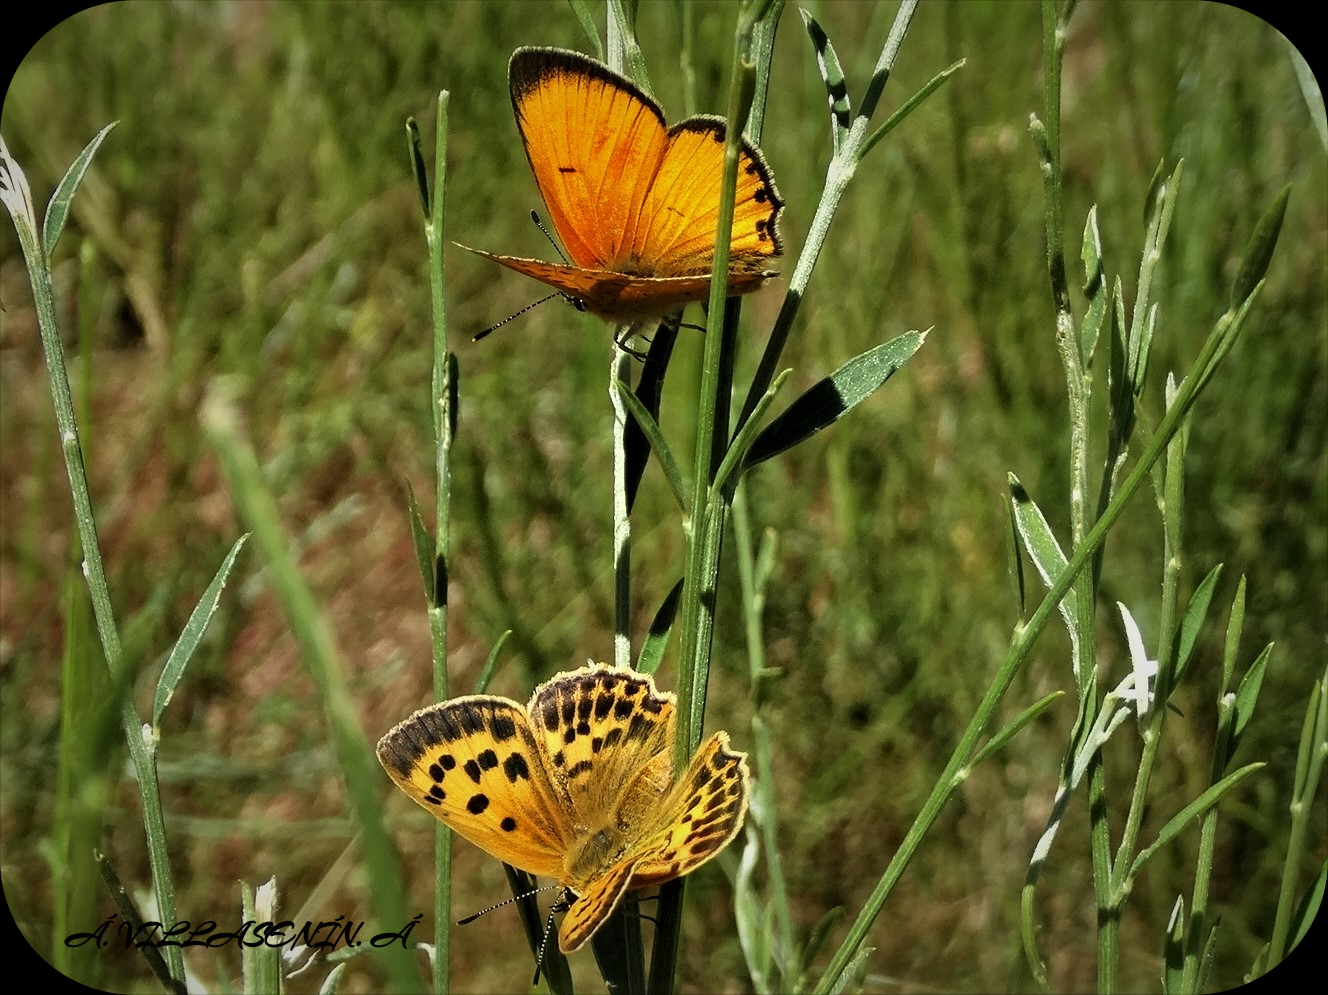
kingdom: Animalia
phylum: Arthropoda
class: Insecta
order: Lepidoptera
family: Lycaenidae
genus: Lycaena
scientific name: Lycaena virgaureae
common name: Scarce copper
